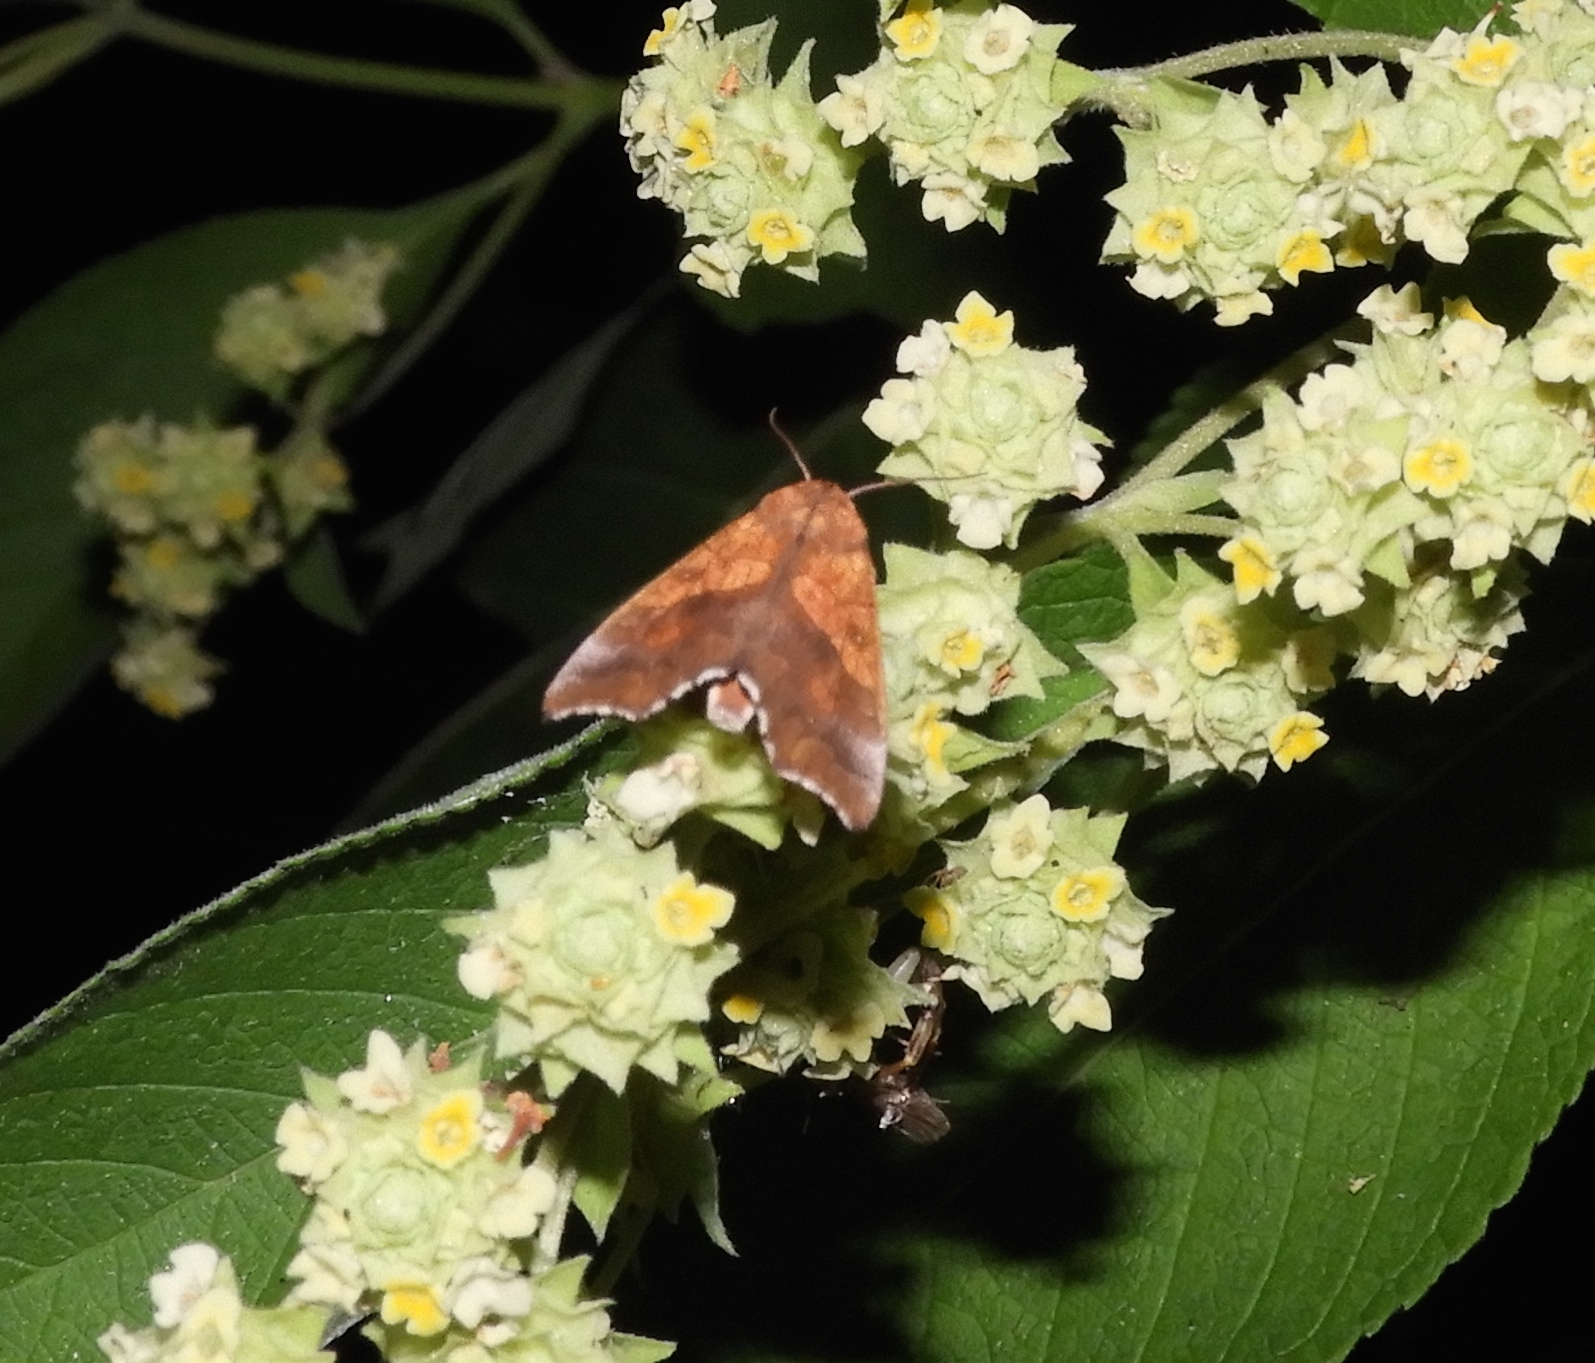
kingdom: Animalia
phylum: Arthropoda
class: Insecta
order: Lepidoptera
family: Erebidae
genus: Anomis
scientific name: Anomis
